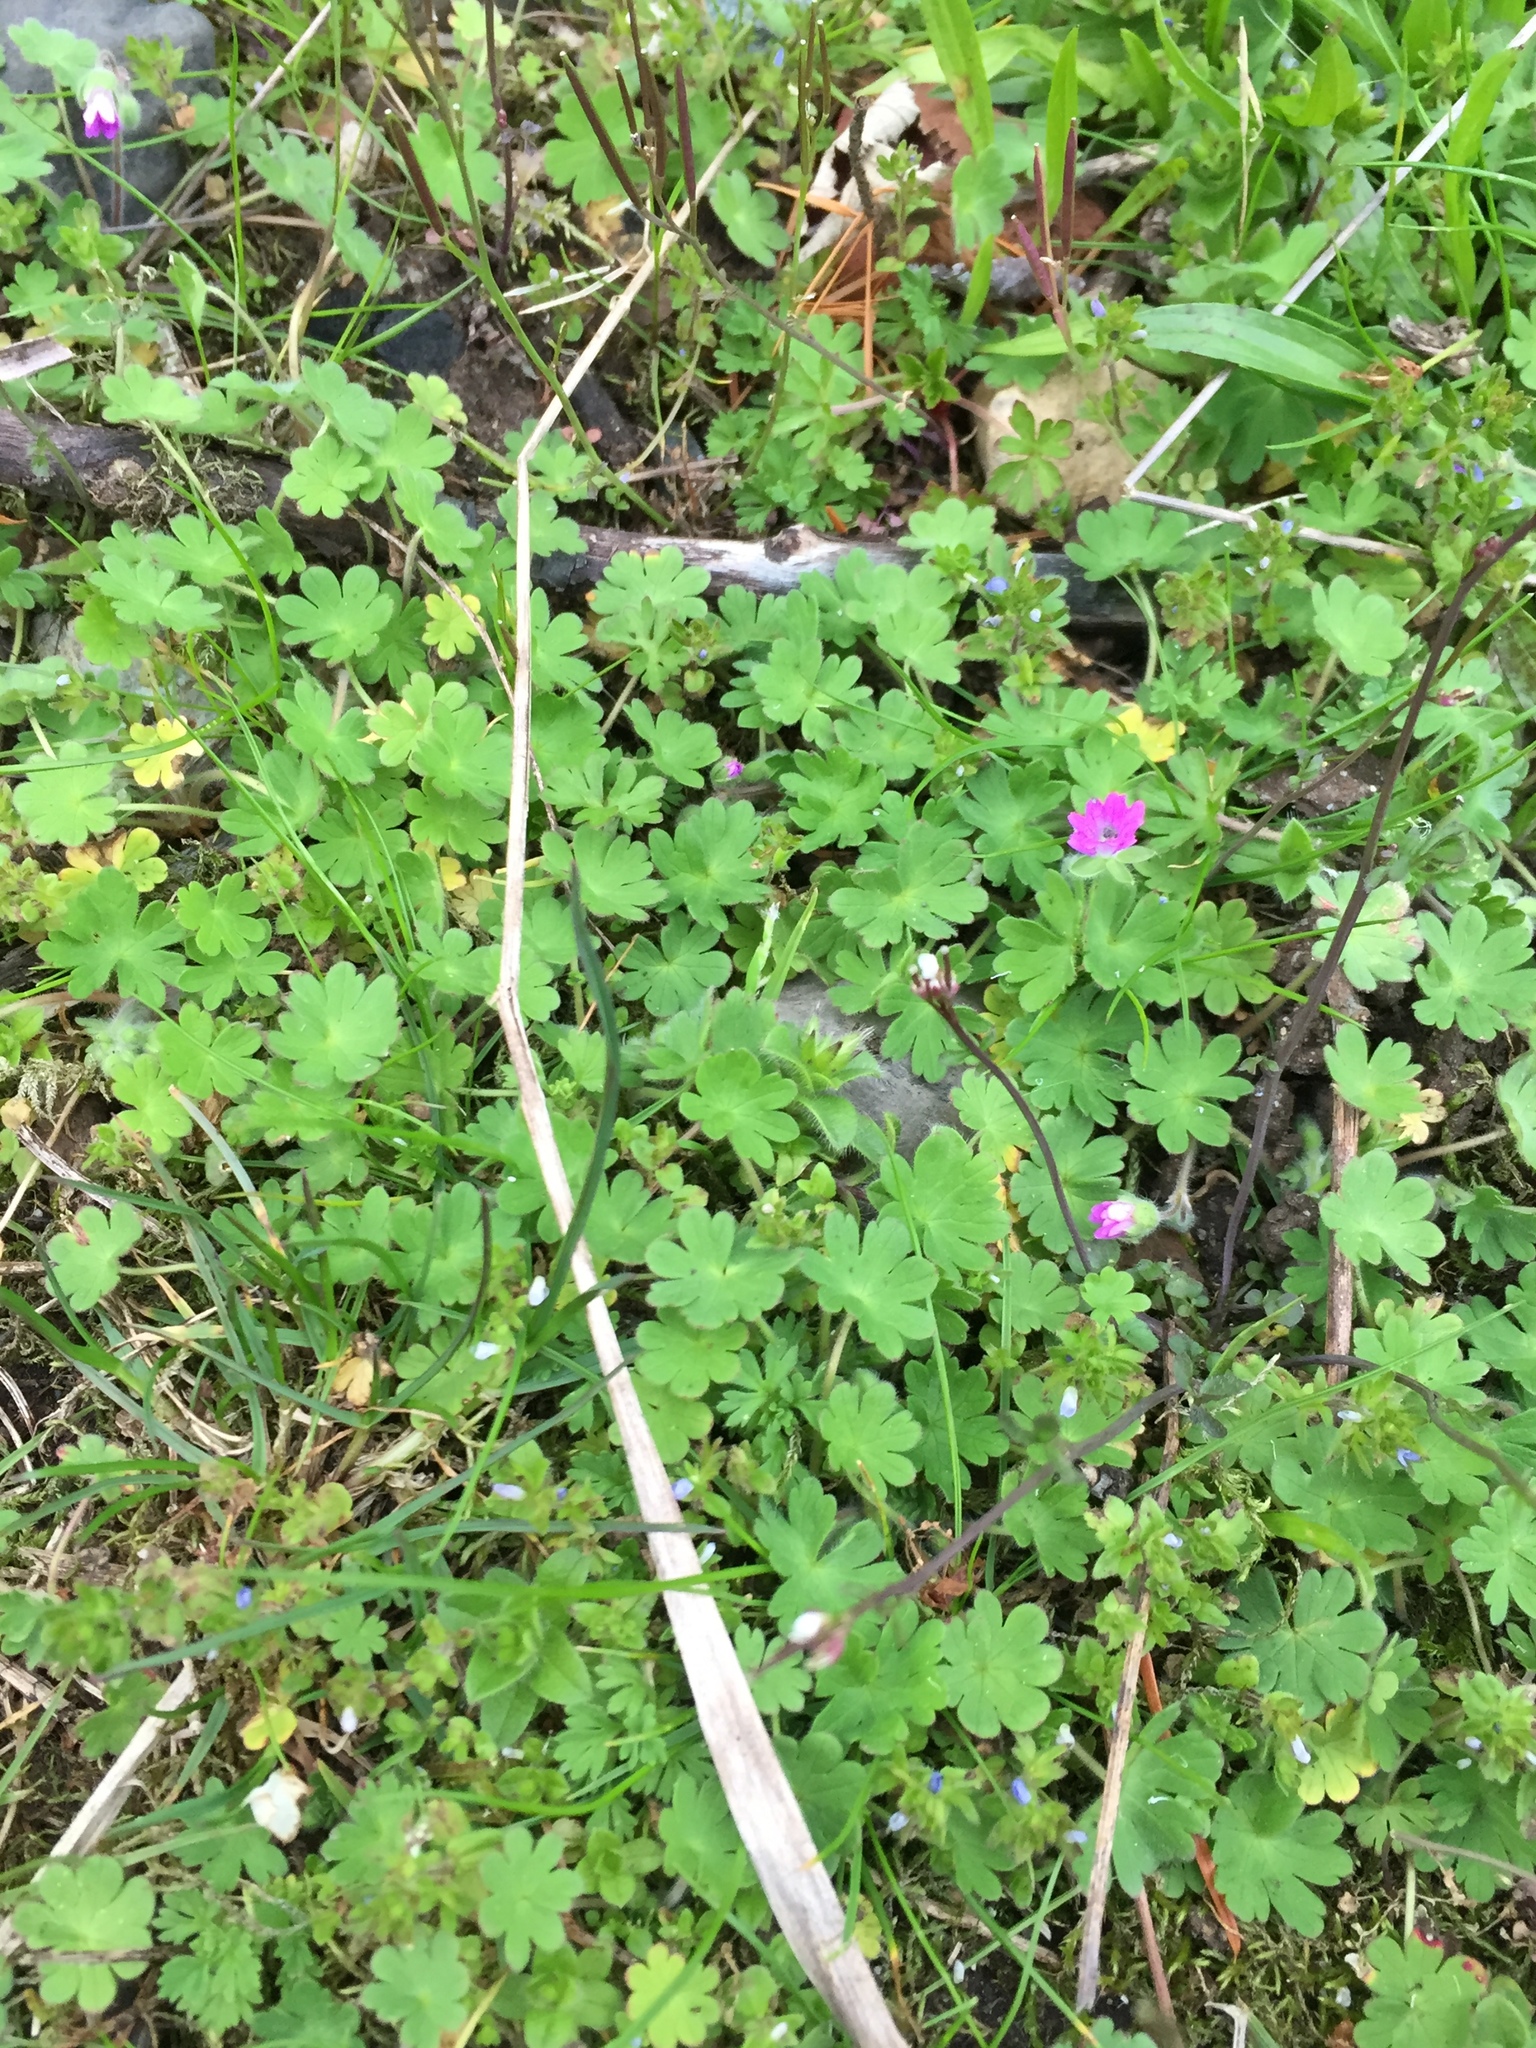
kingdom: Plantae
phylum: Tracheophyta
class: Magnoliopsida
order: Geraniales
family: Geraniaceae
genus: Geranium
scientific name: Geranium molle
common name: Dove's-foot crane's-bill
